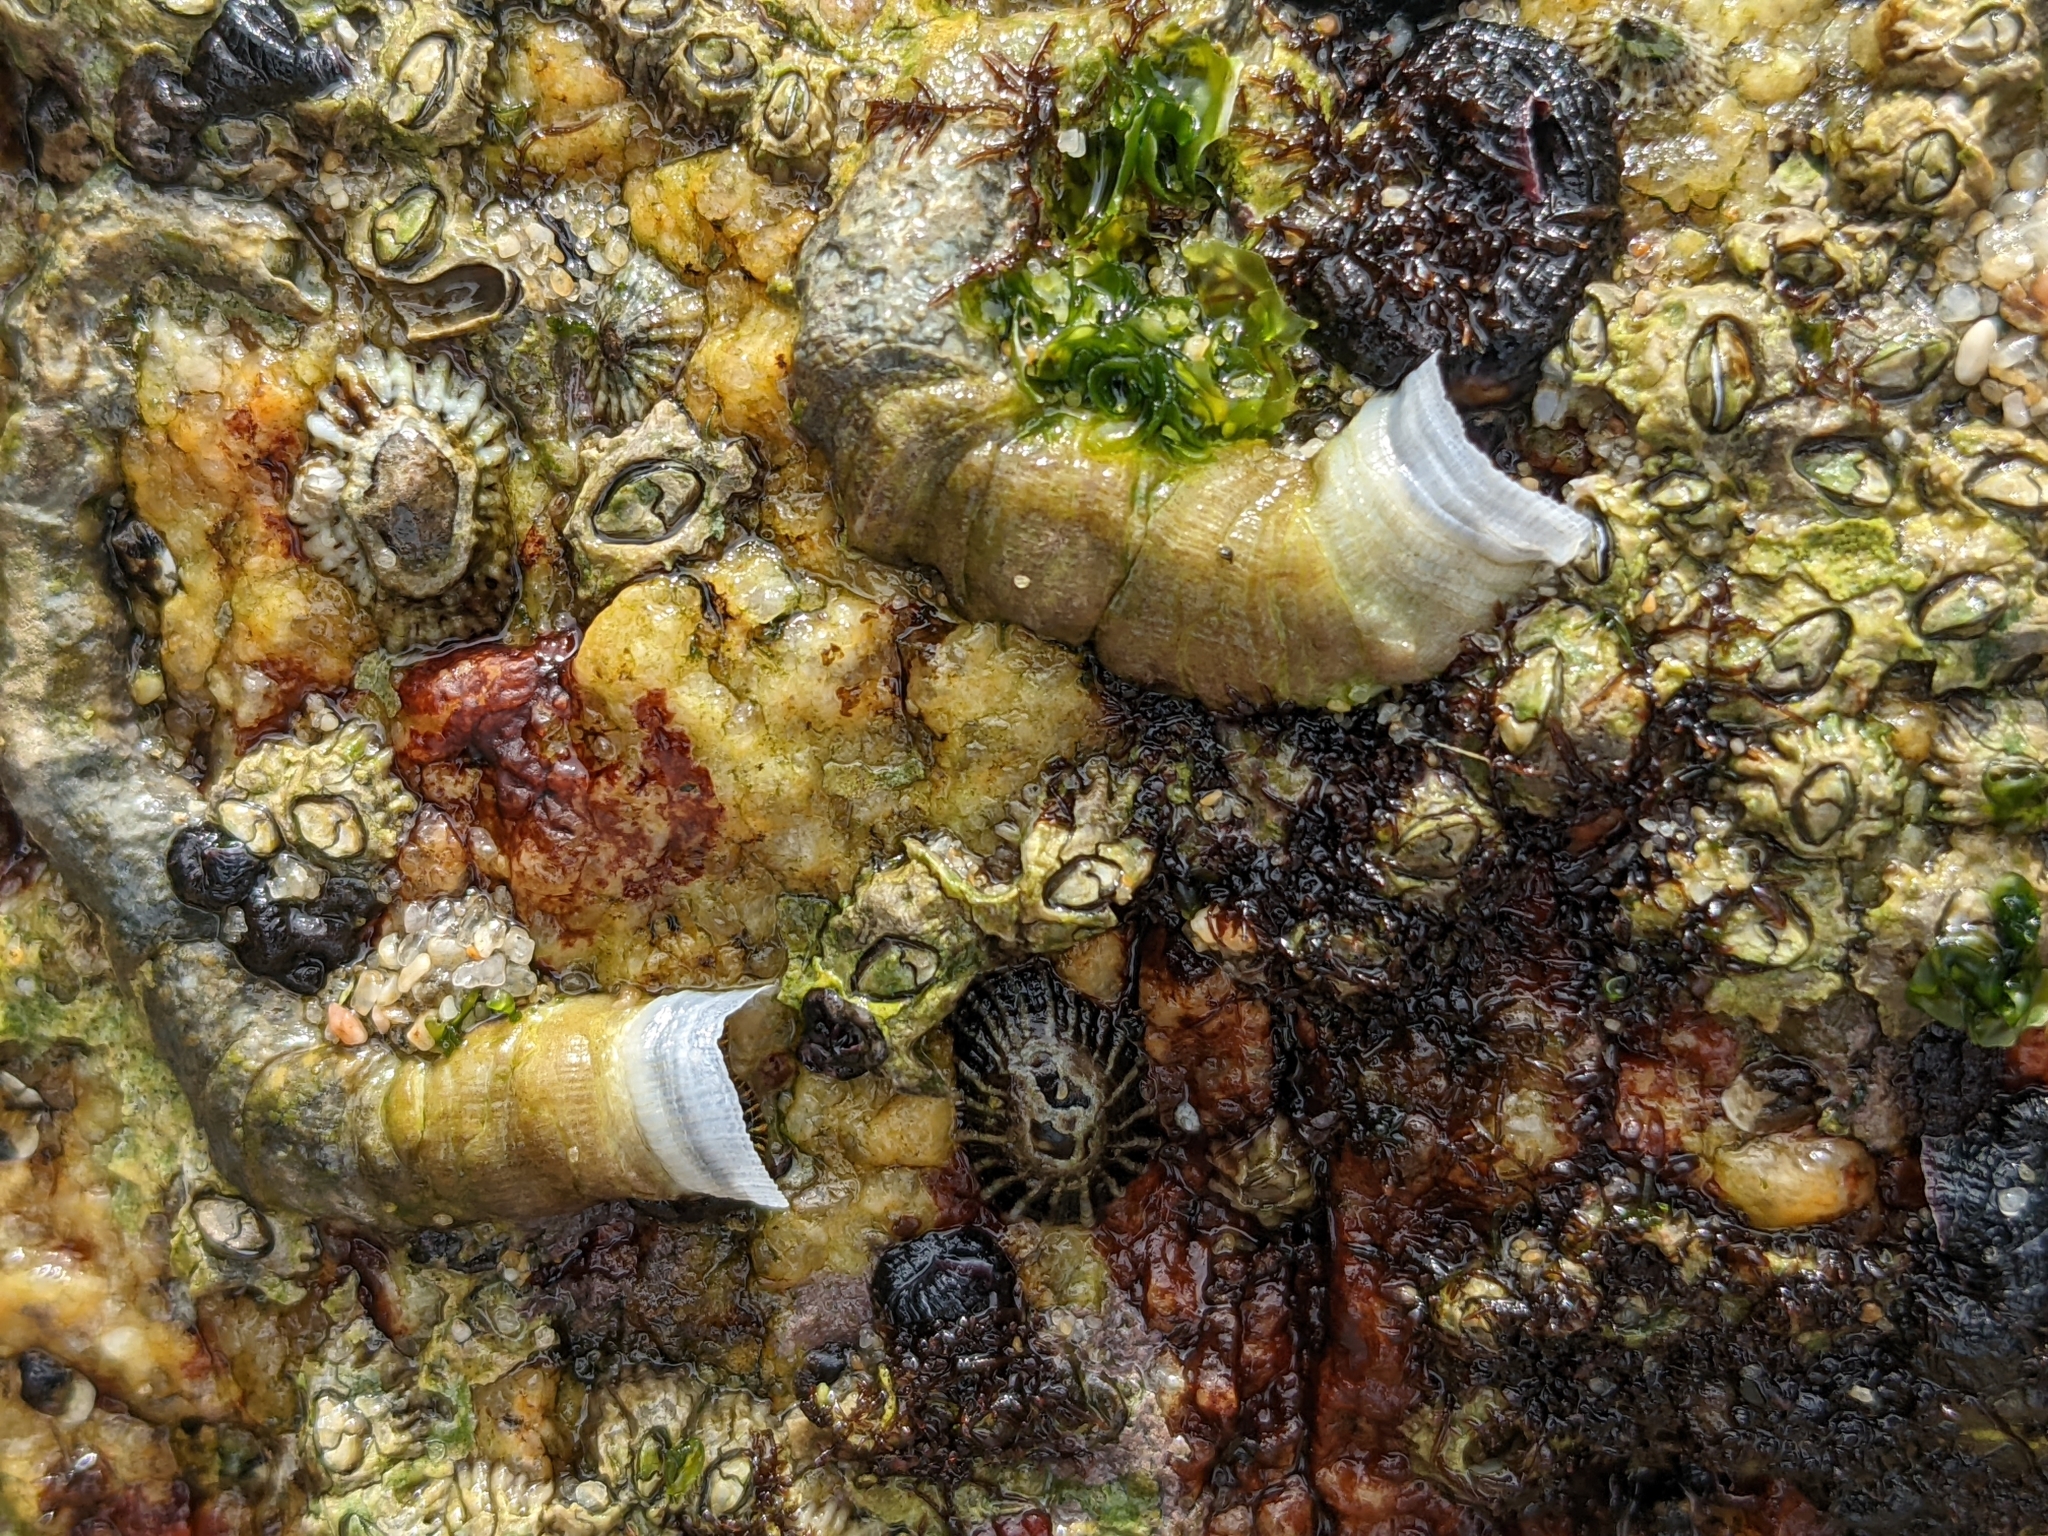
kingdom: Animalia
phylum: Mollusca
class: Gastropoda
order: Littorinimorpha
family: Vermetidae
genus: Thylacodes
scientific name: Thylacodes squamigerus
